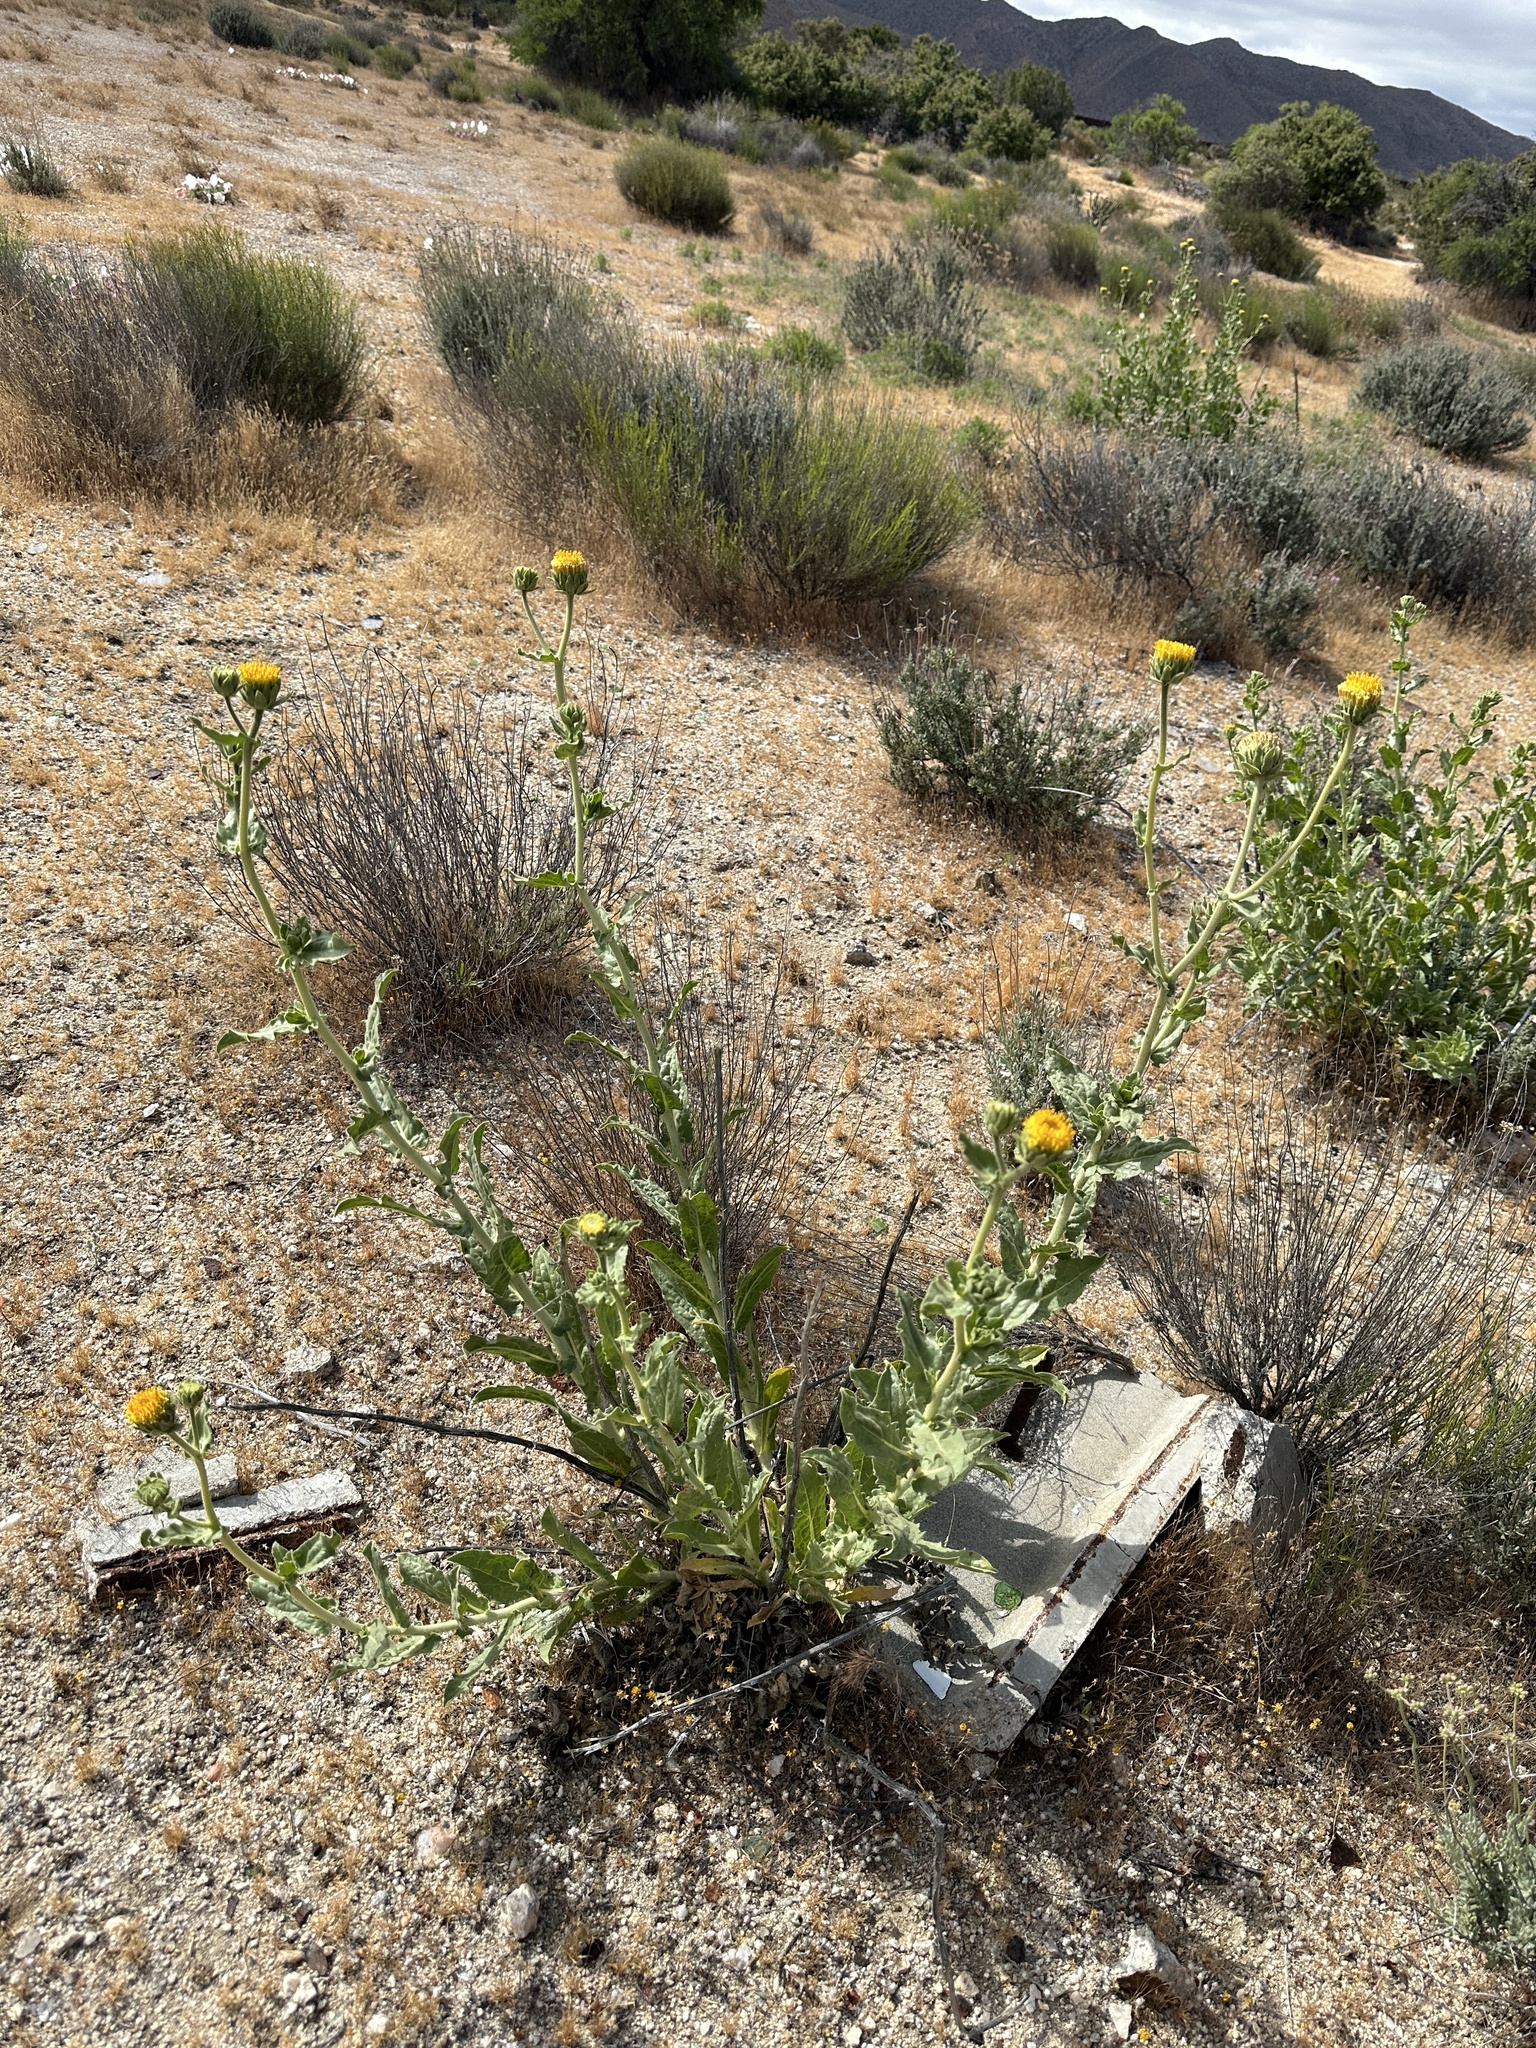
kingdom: Plantae
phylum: Tracheophyta
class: Magnoliopsida
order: Asterales
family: Asteraceae
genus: Geraea
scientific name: Geraea viscida
